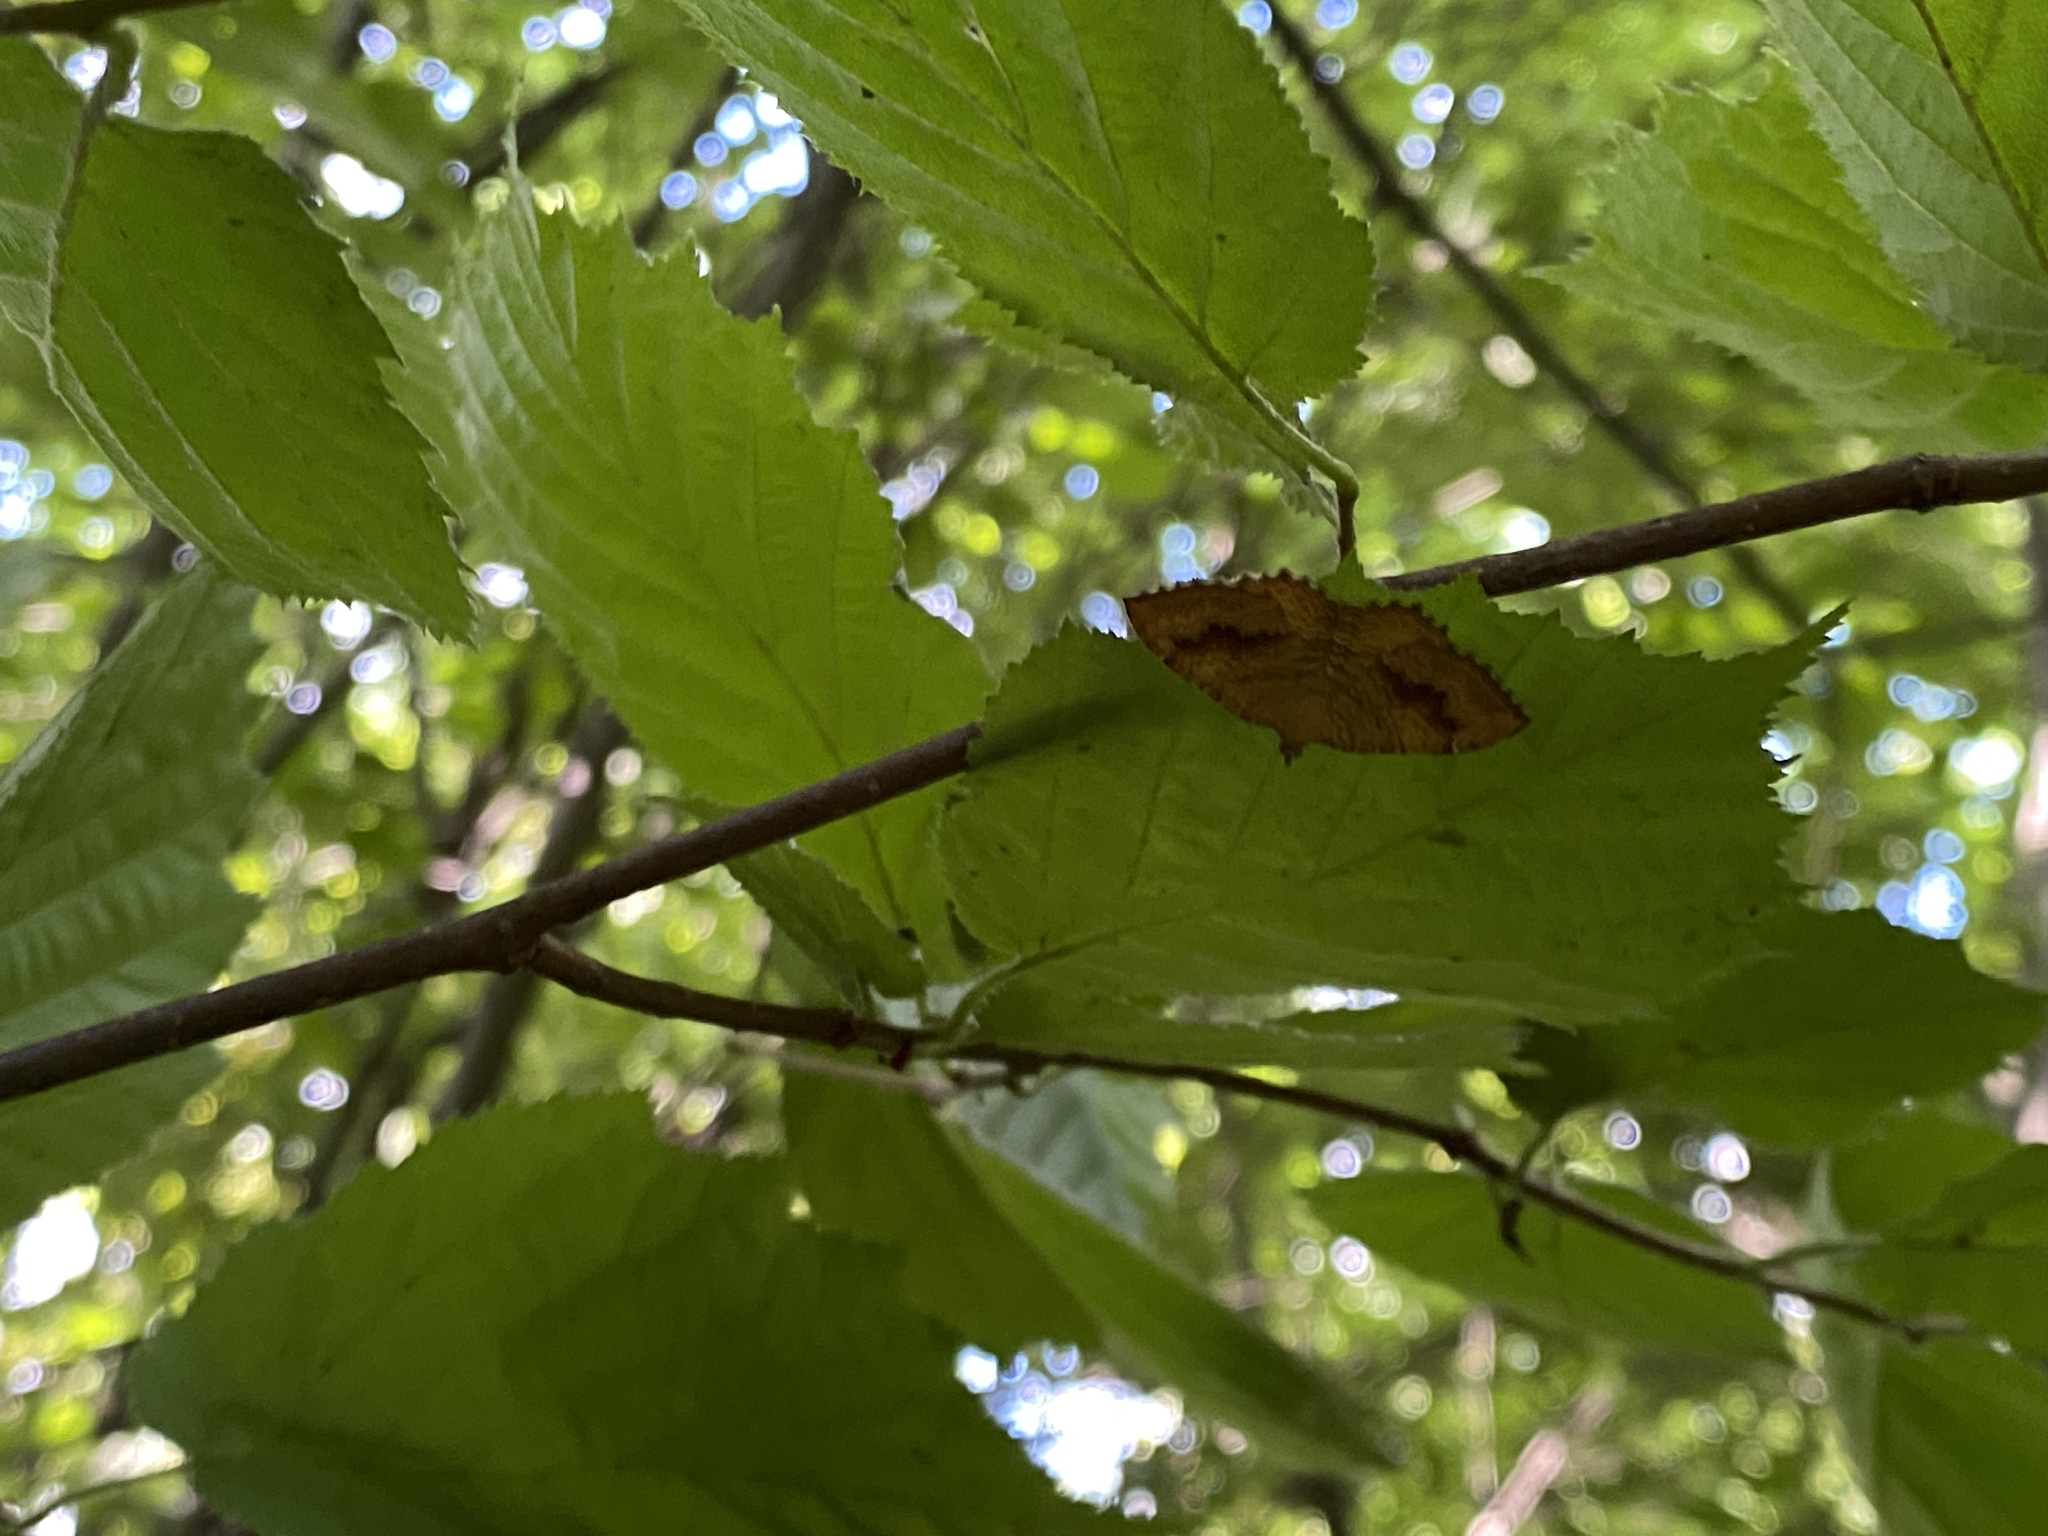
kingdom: Animalia
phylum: Arthropoda
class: Insecta
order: Lepidoptera
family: Geometridae
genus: Camptogramma
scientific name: Camptogramma bilineata
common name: Yellow shell
